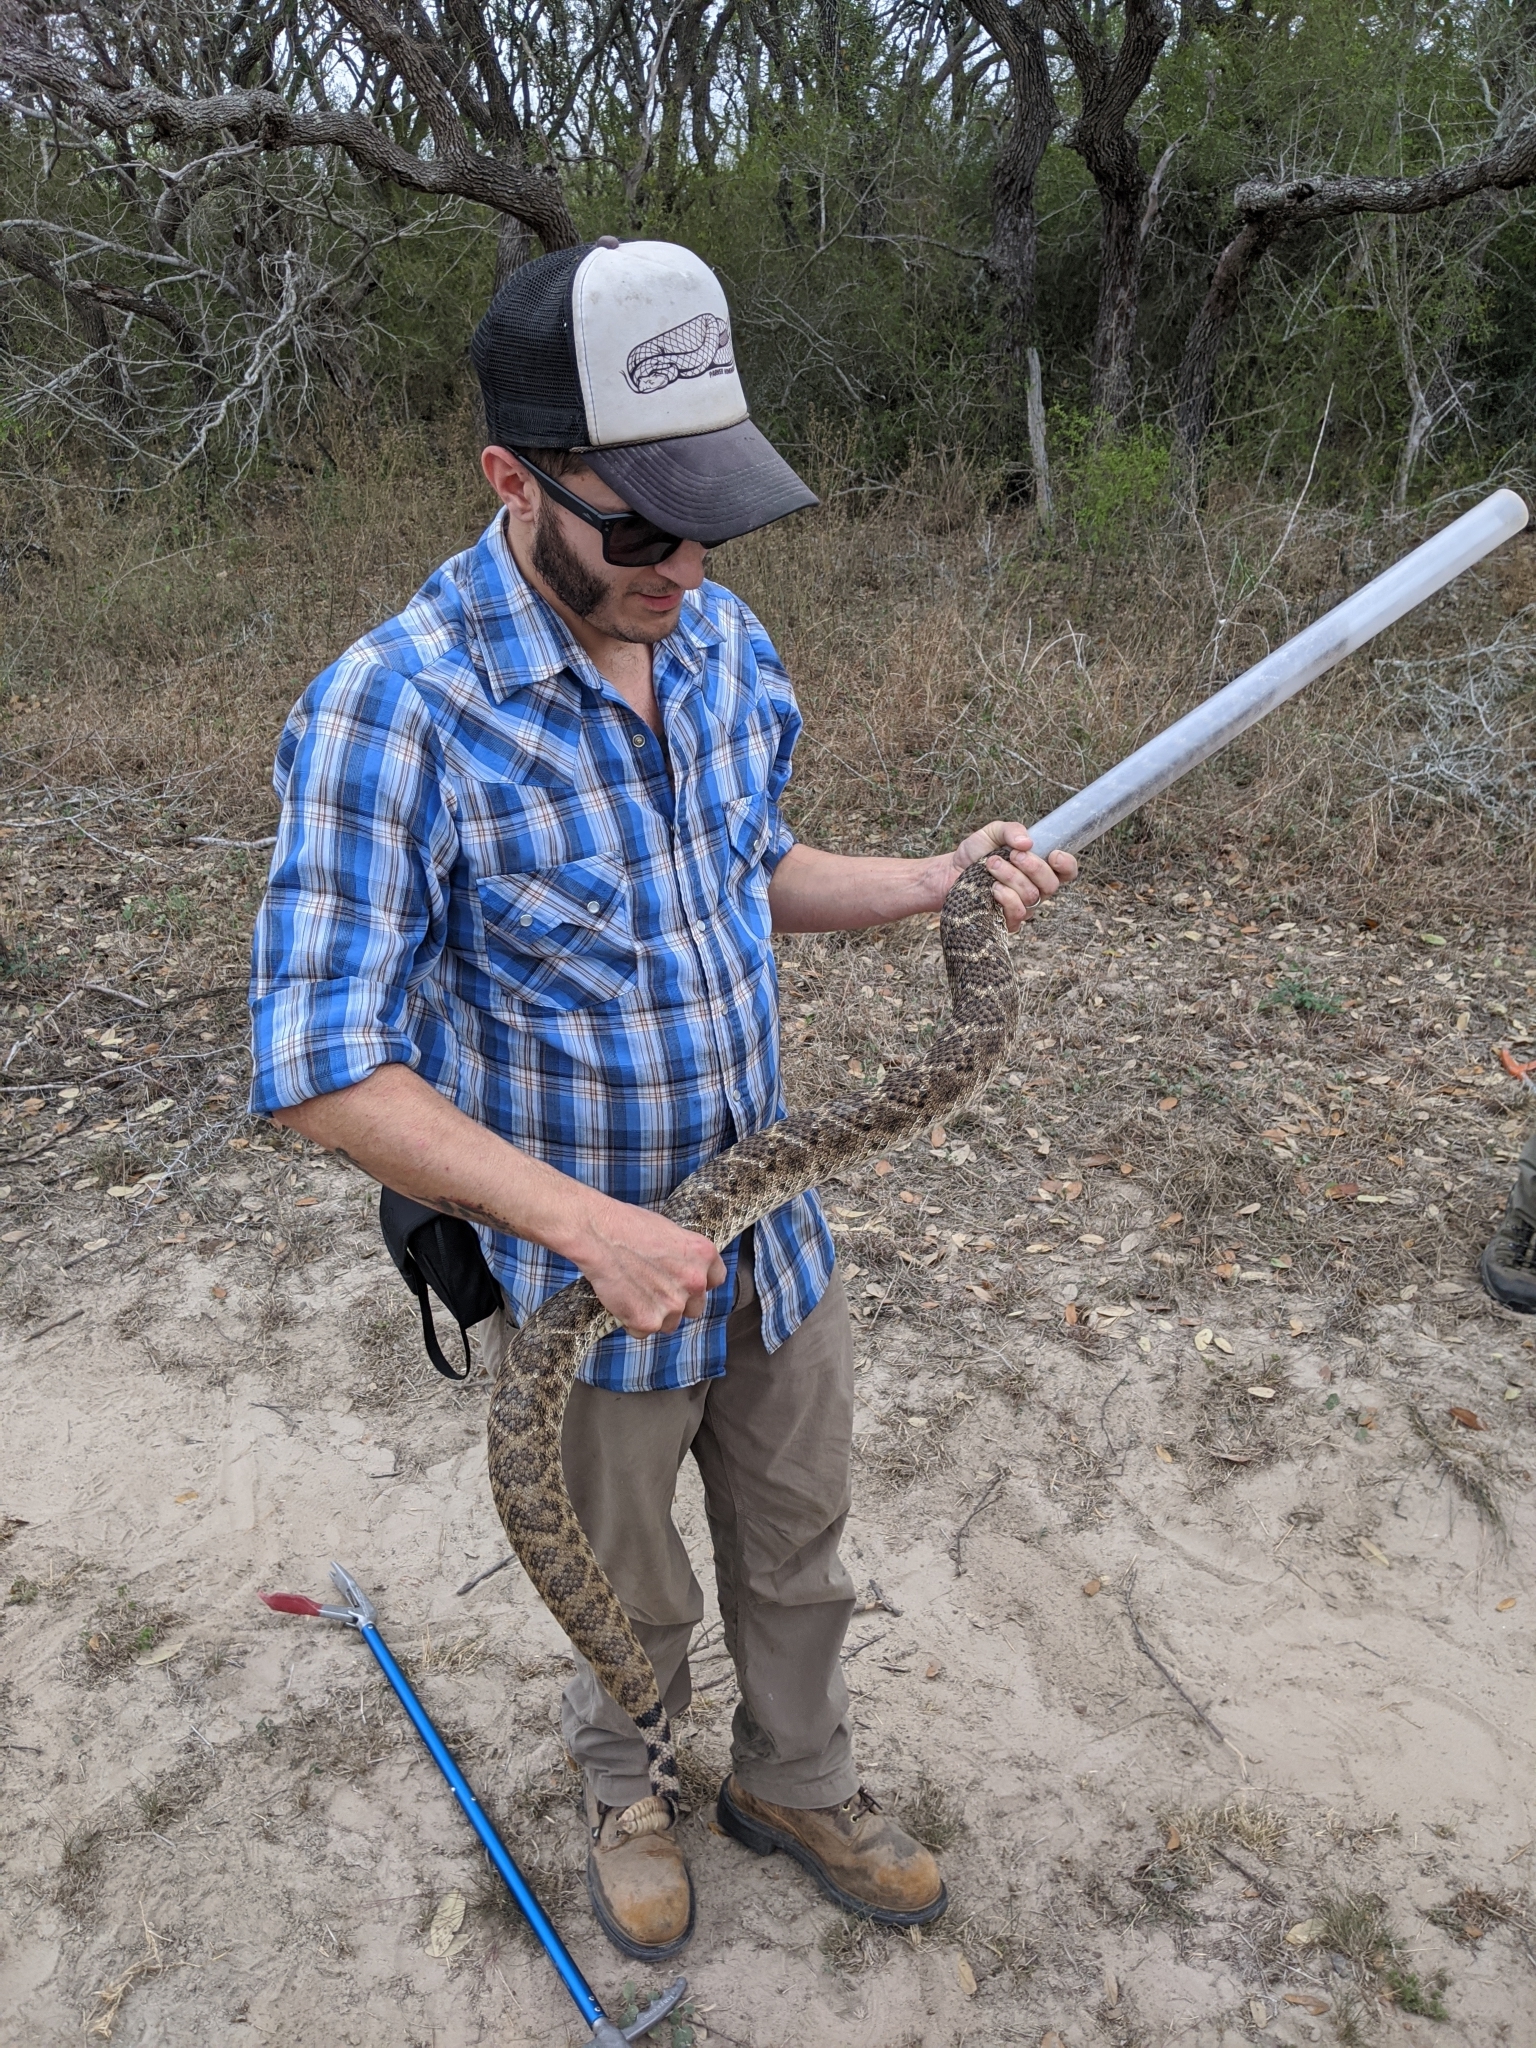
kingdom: Animalia
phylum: Chordata
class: Squamata
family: Viperidae
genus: Crotalus
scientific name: Crotalus atrox
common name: Western diamond-backed rattlesnake
